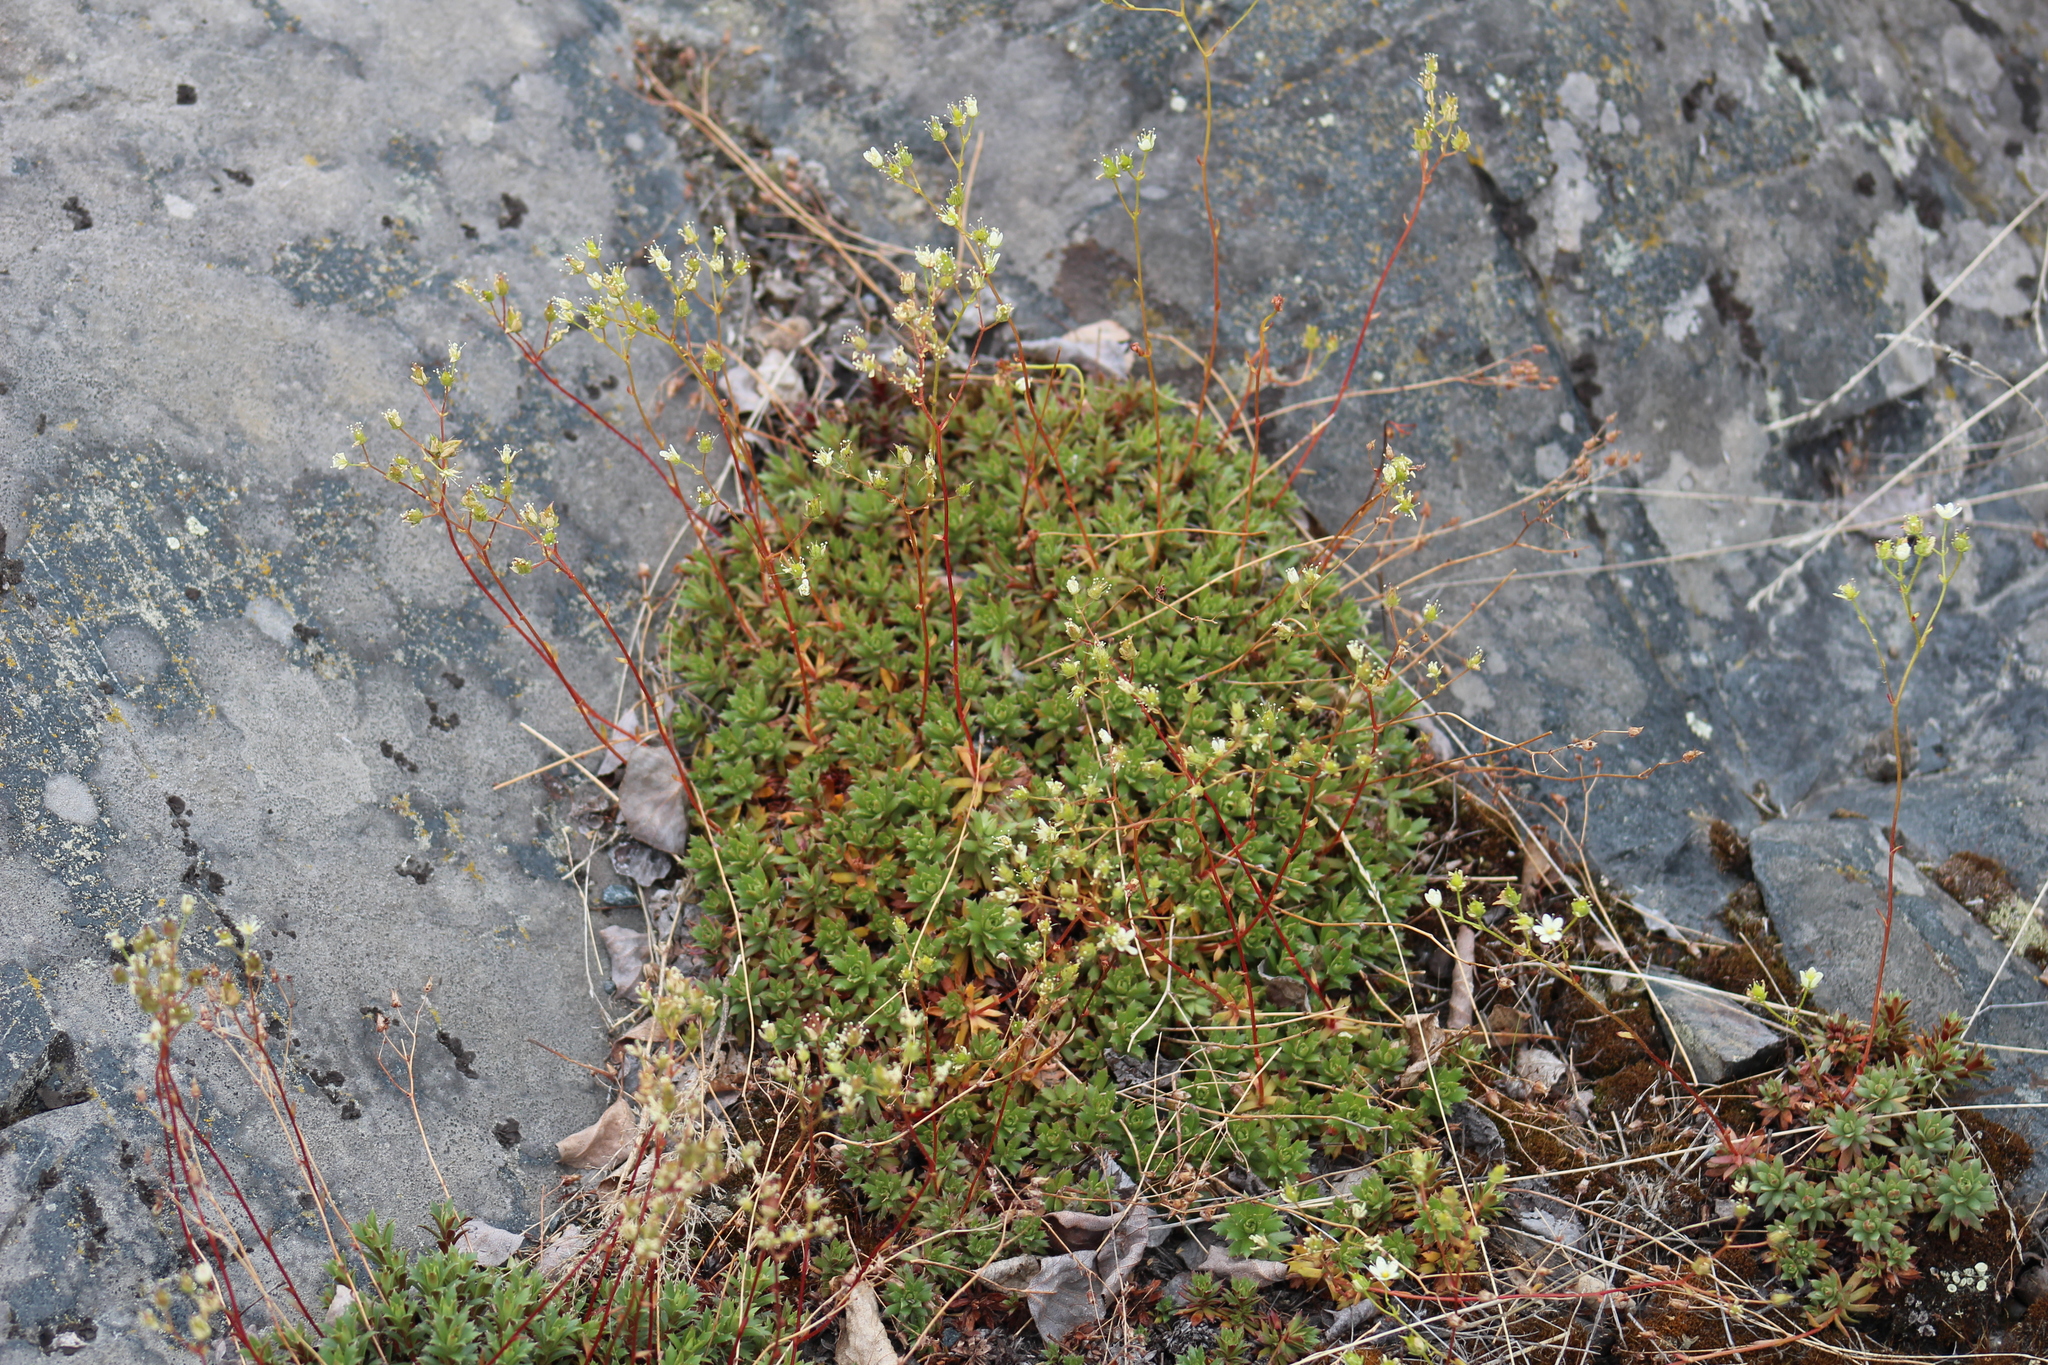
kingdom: Plantae
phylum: Tracheophyta
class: Magnoliopsida
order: Saxifragales
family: Saxifragaceae
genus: Saxifraga
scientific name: Saxifraga tricuspidata
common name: Prickly saxifrage
